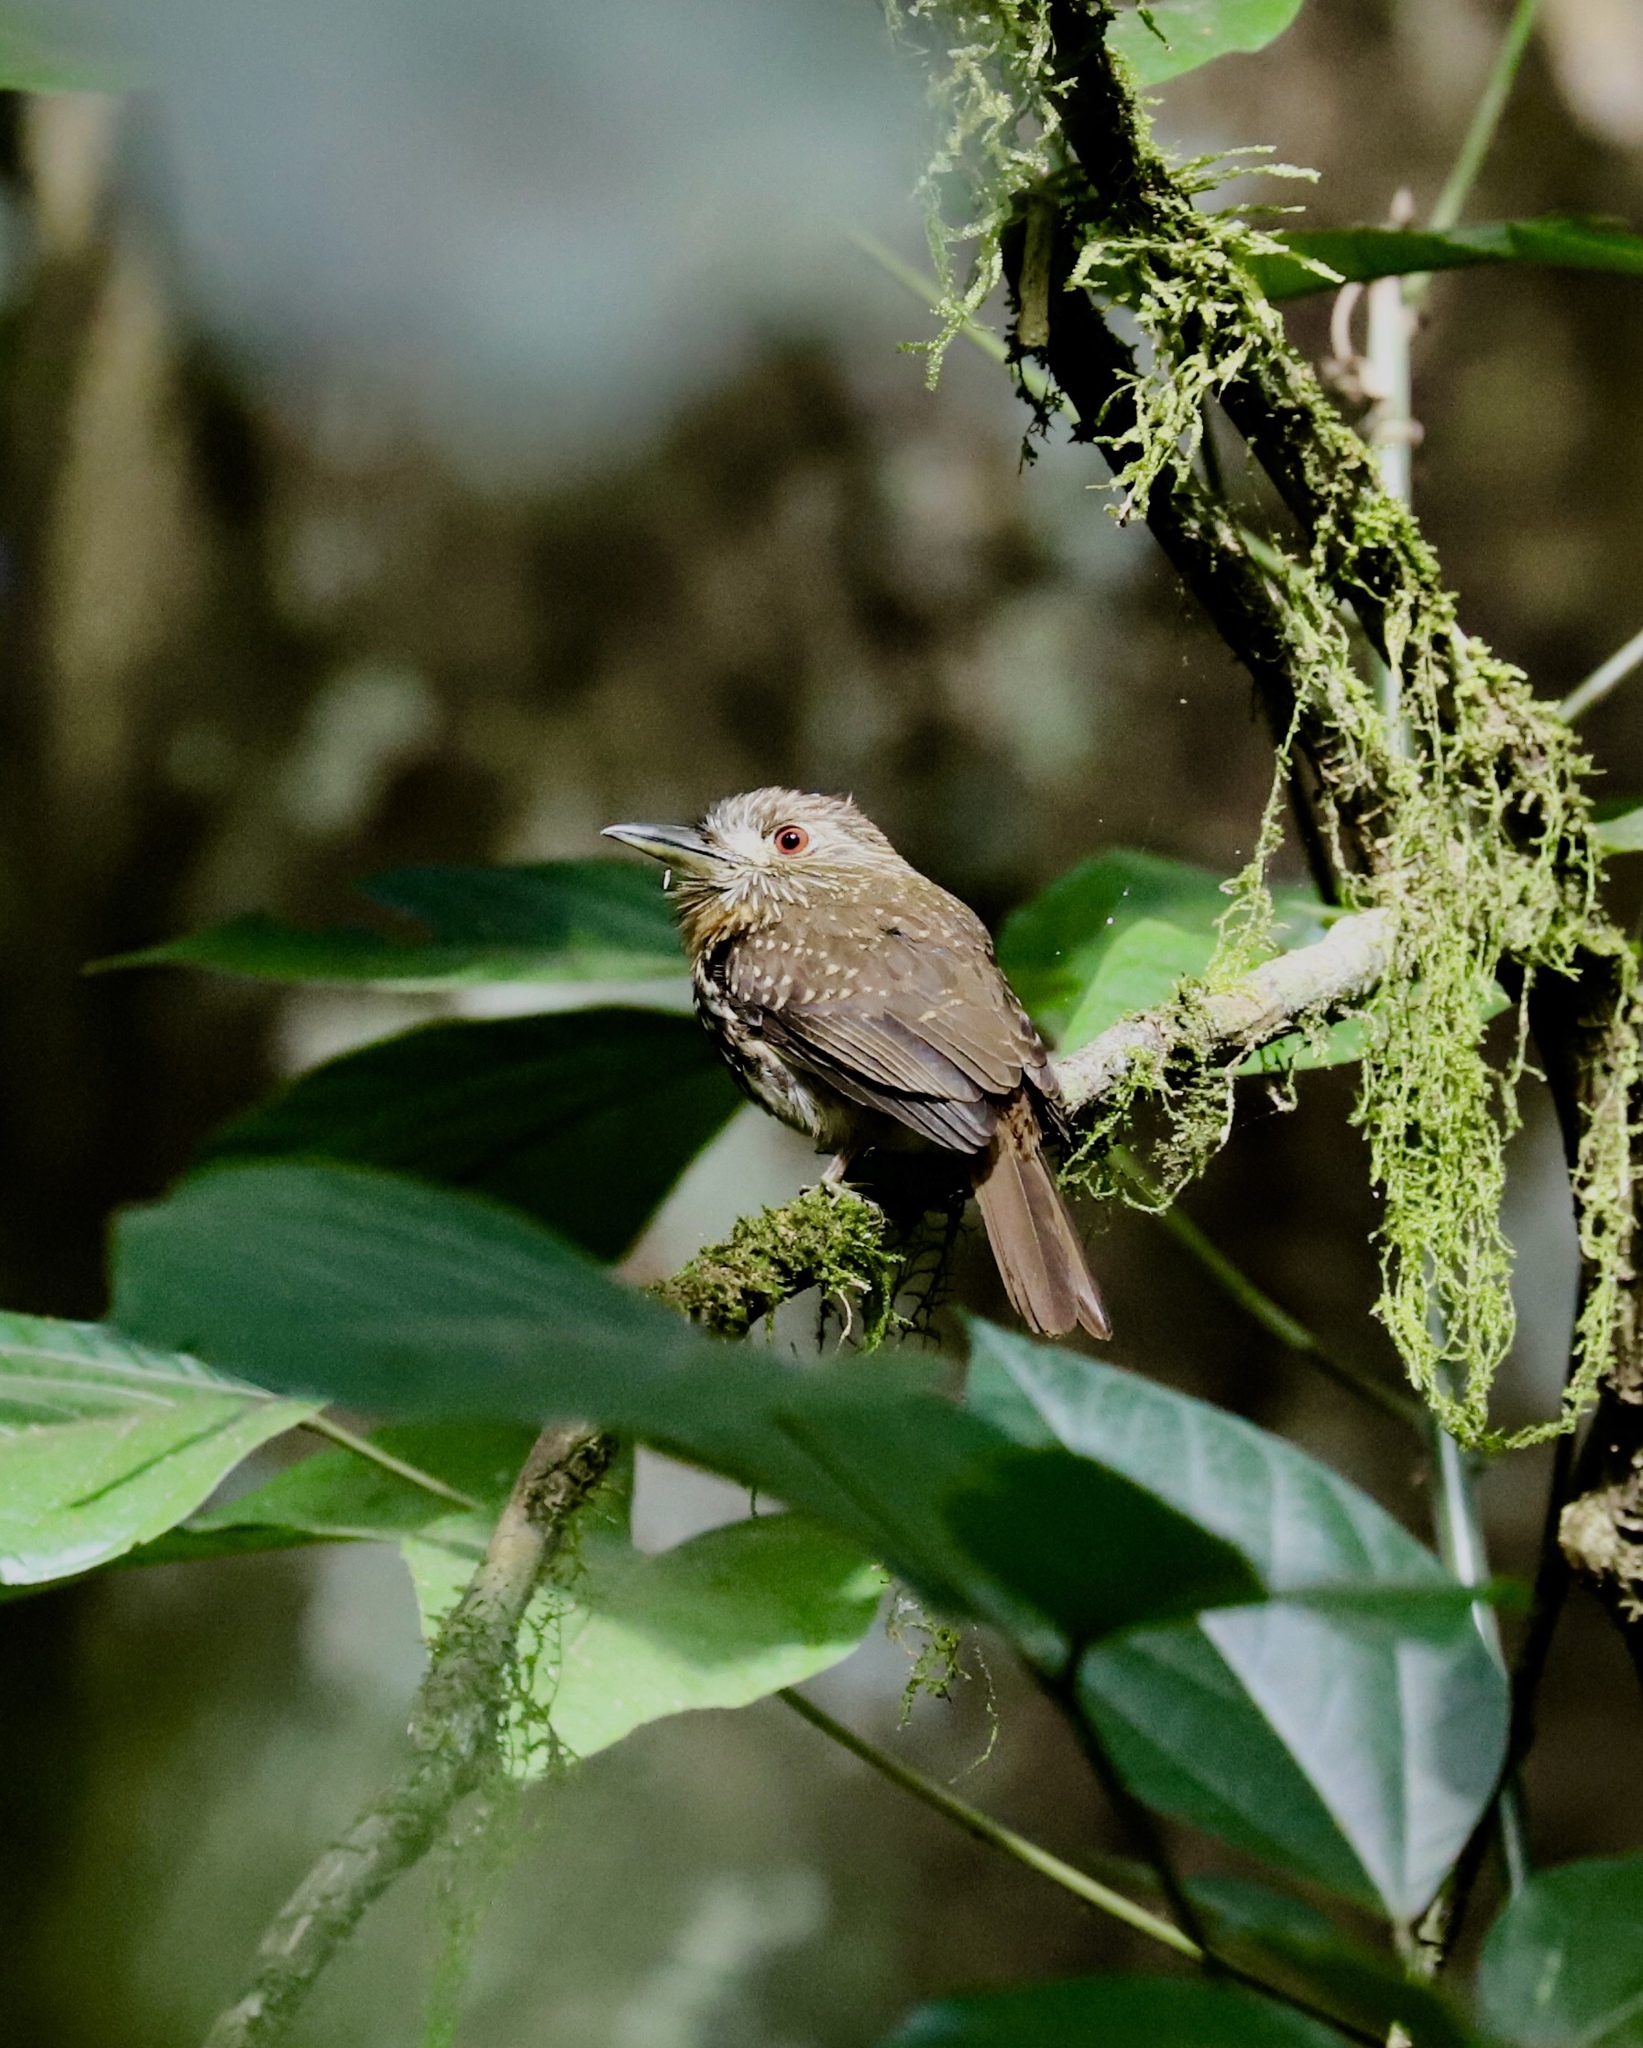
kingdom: Animalia
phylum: Chordata
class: Aves
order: Piciformes
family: Bucconidae
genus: Malacoptila
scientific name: Malacoptila panamensis
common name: White-whiskered puffbird
